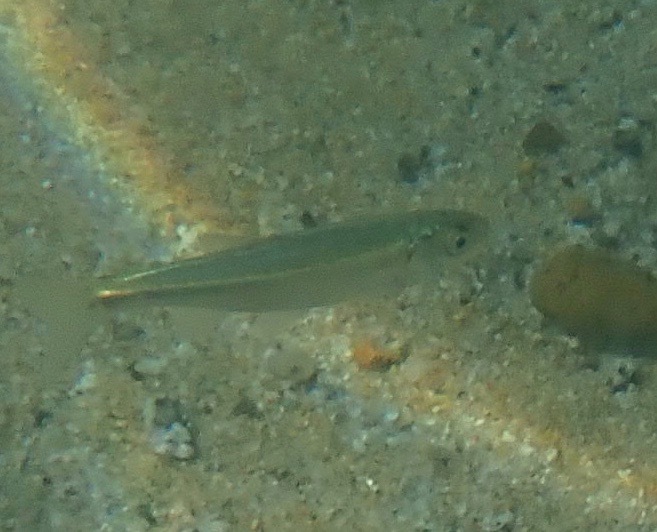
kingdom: Animalia
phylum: Chordata
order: Cypriniformes
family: Cyprinidae
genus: Richardsonius
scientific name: Richardsonius egregius
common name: Lahontan redside
